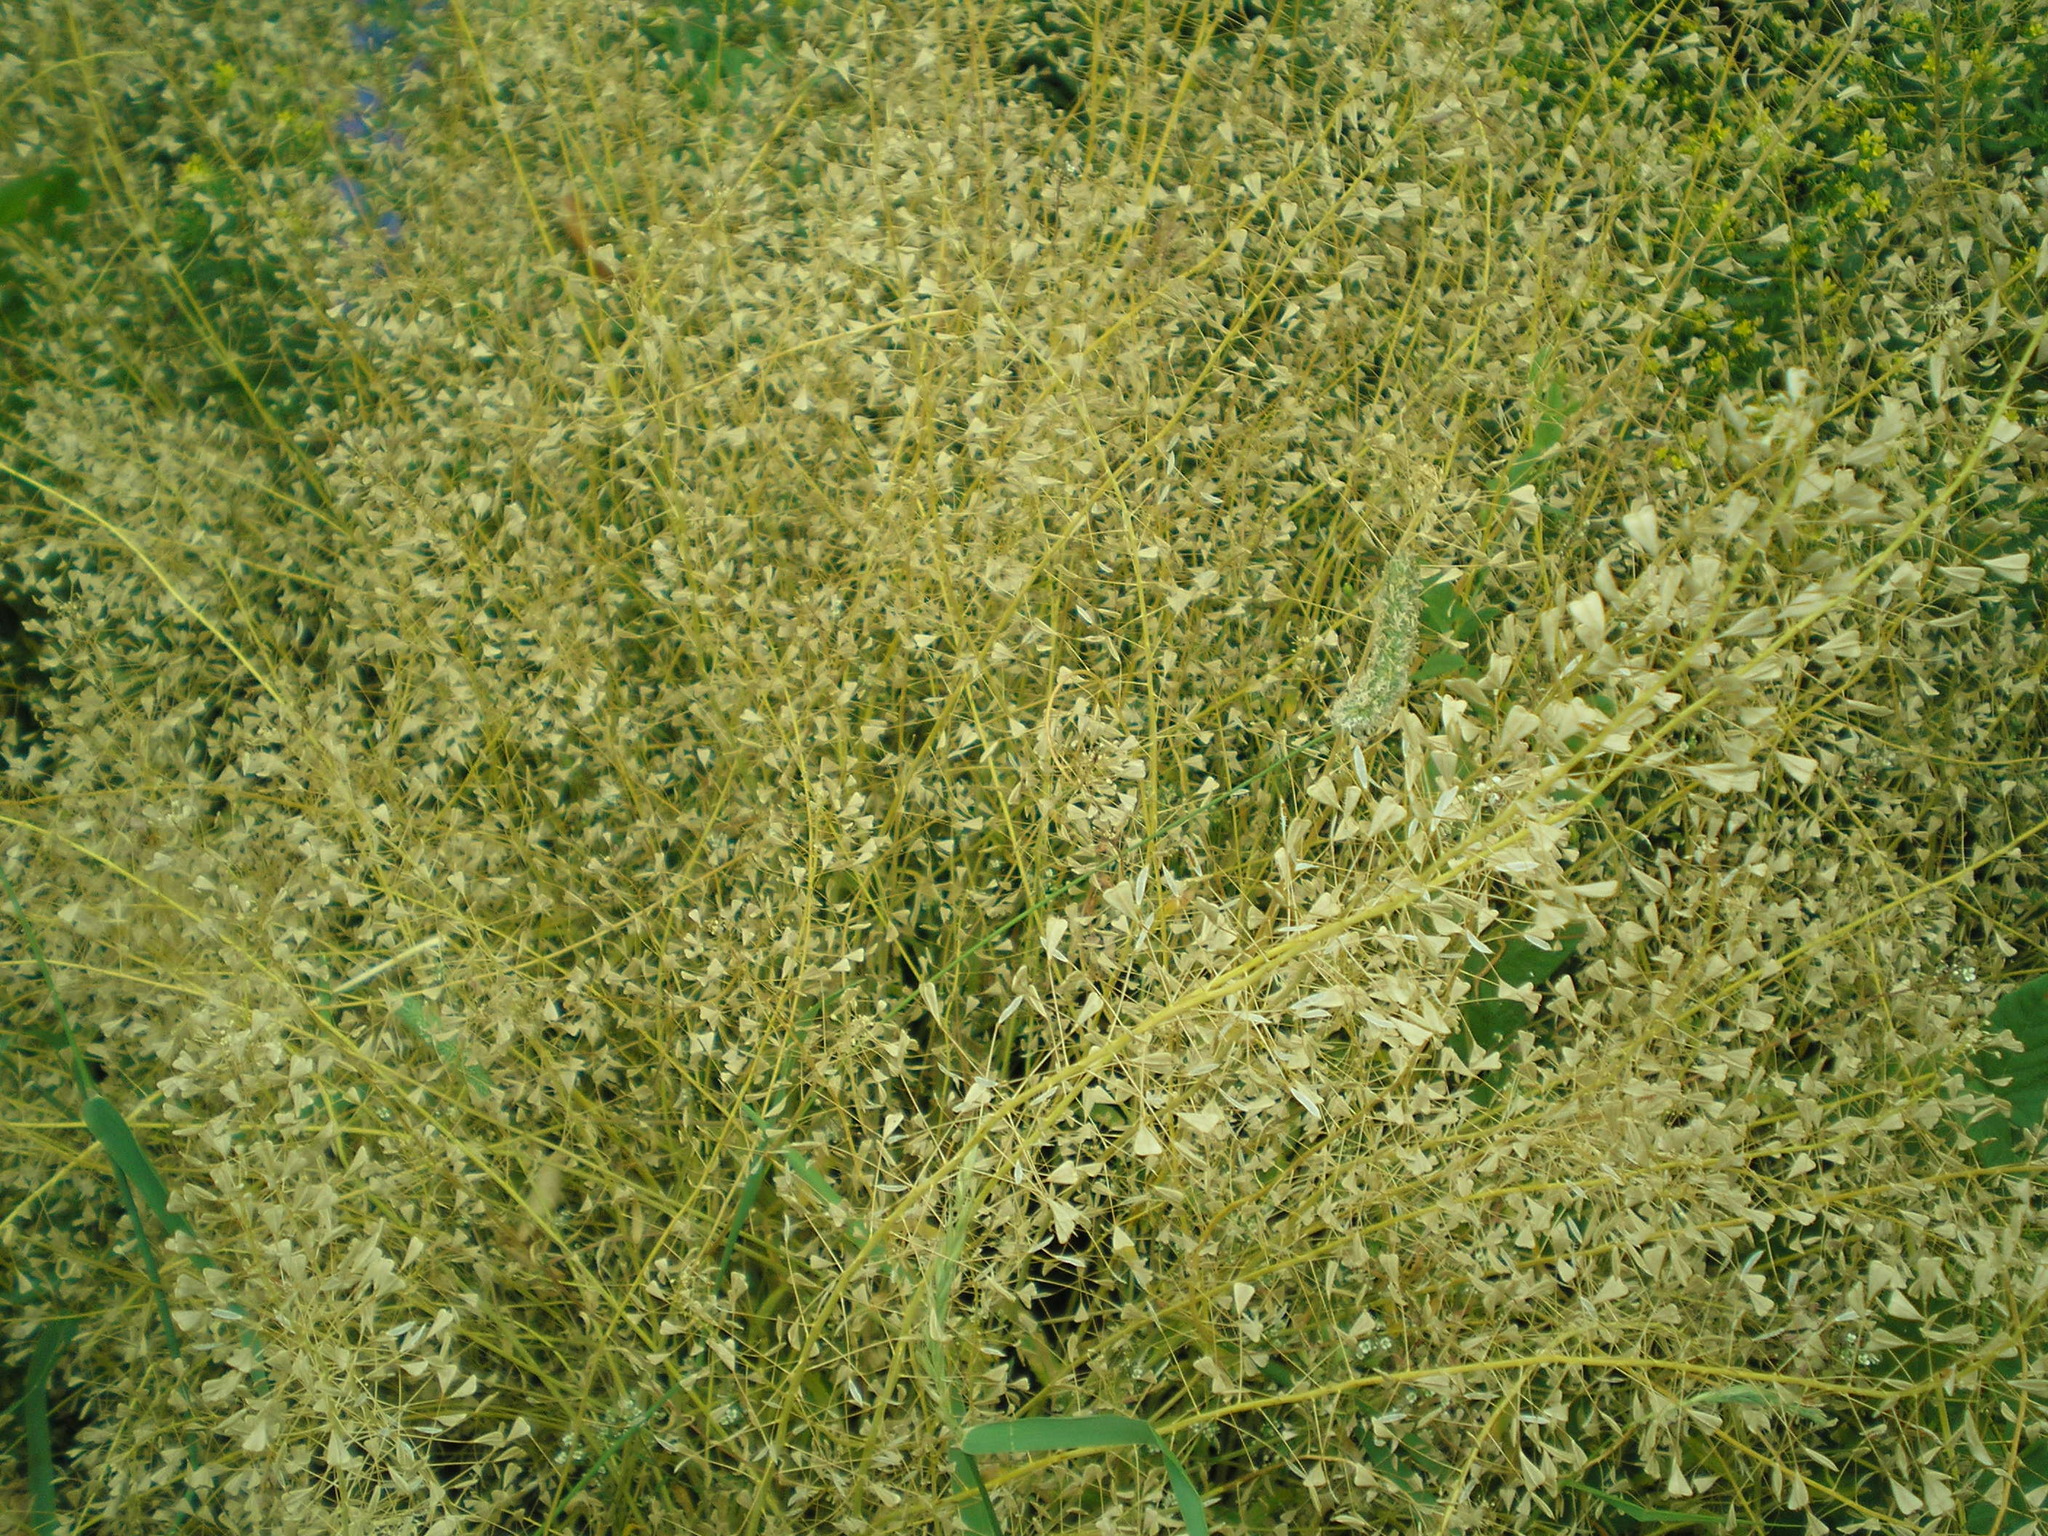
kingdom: Plantae
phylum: Tracheophyta
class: Magnoliopsida
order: Brassicales
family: Brassicaceae
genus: Capsella
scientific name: Capsella bursa-pastoris
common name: Shepherd's purse
